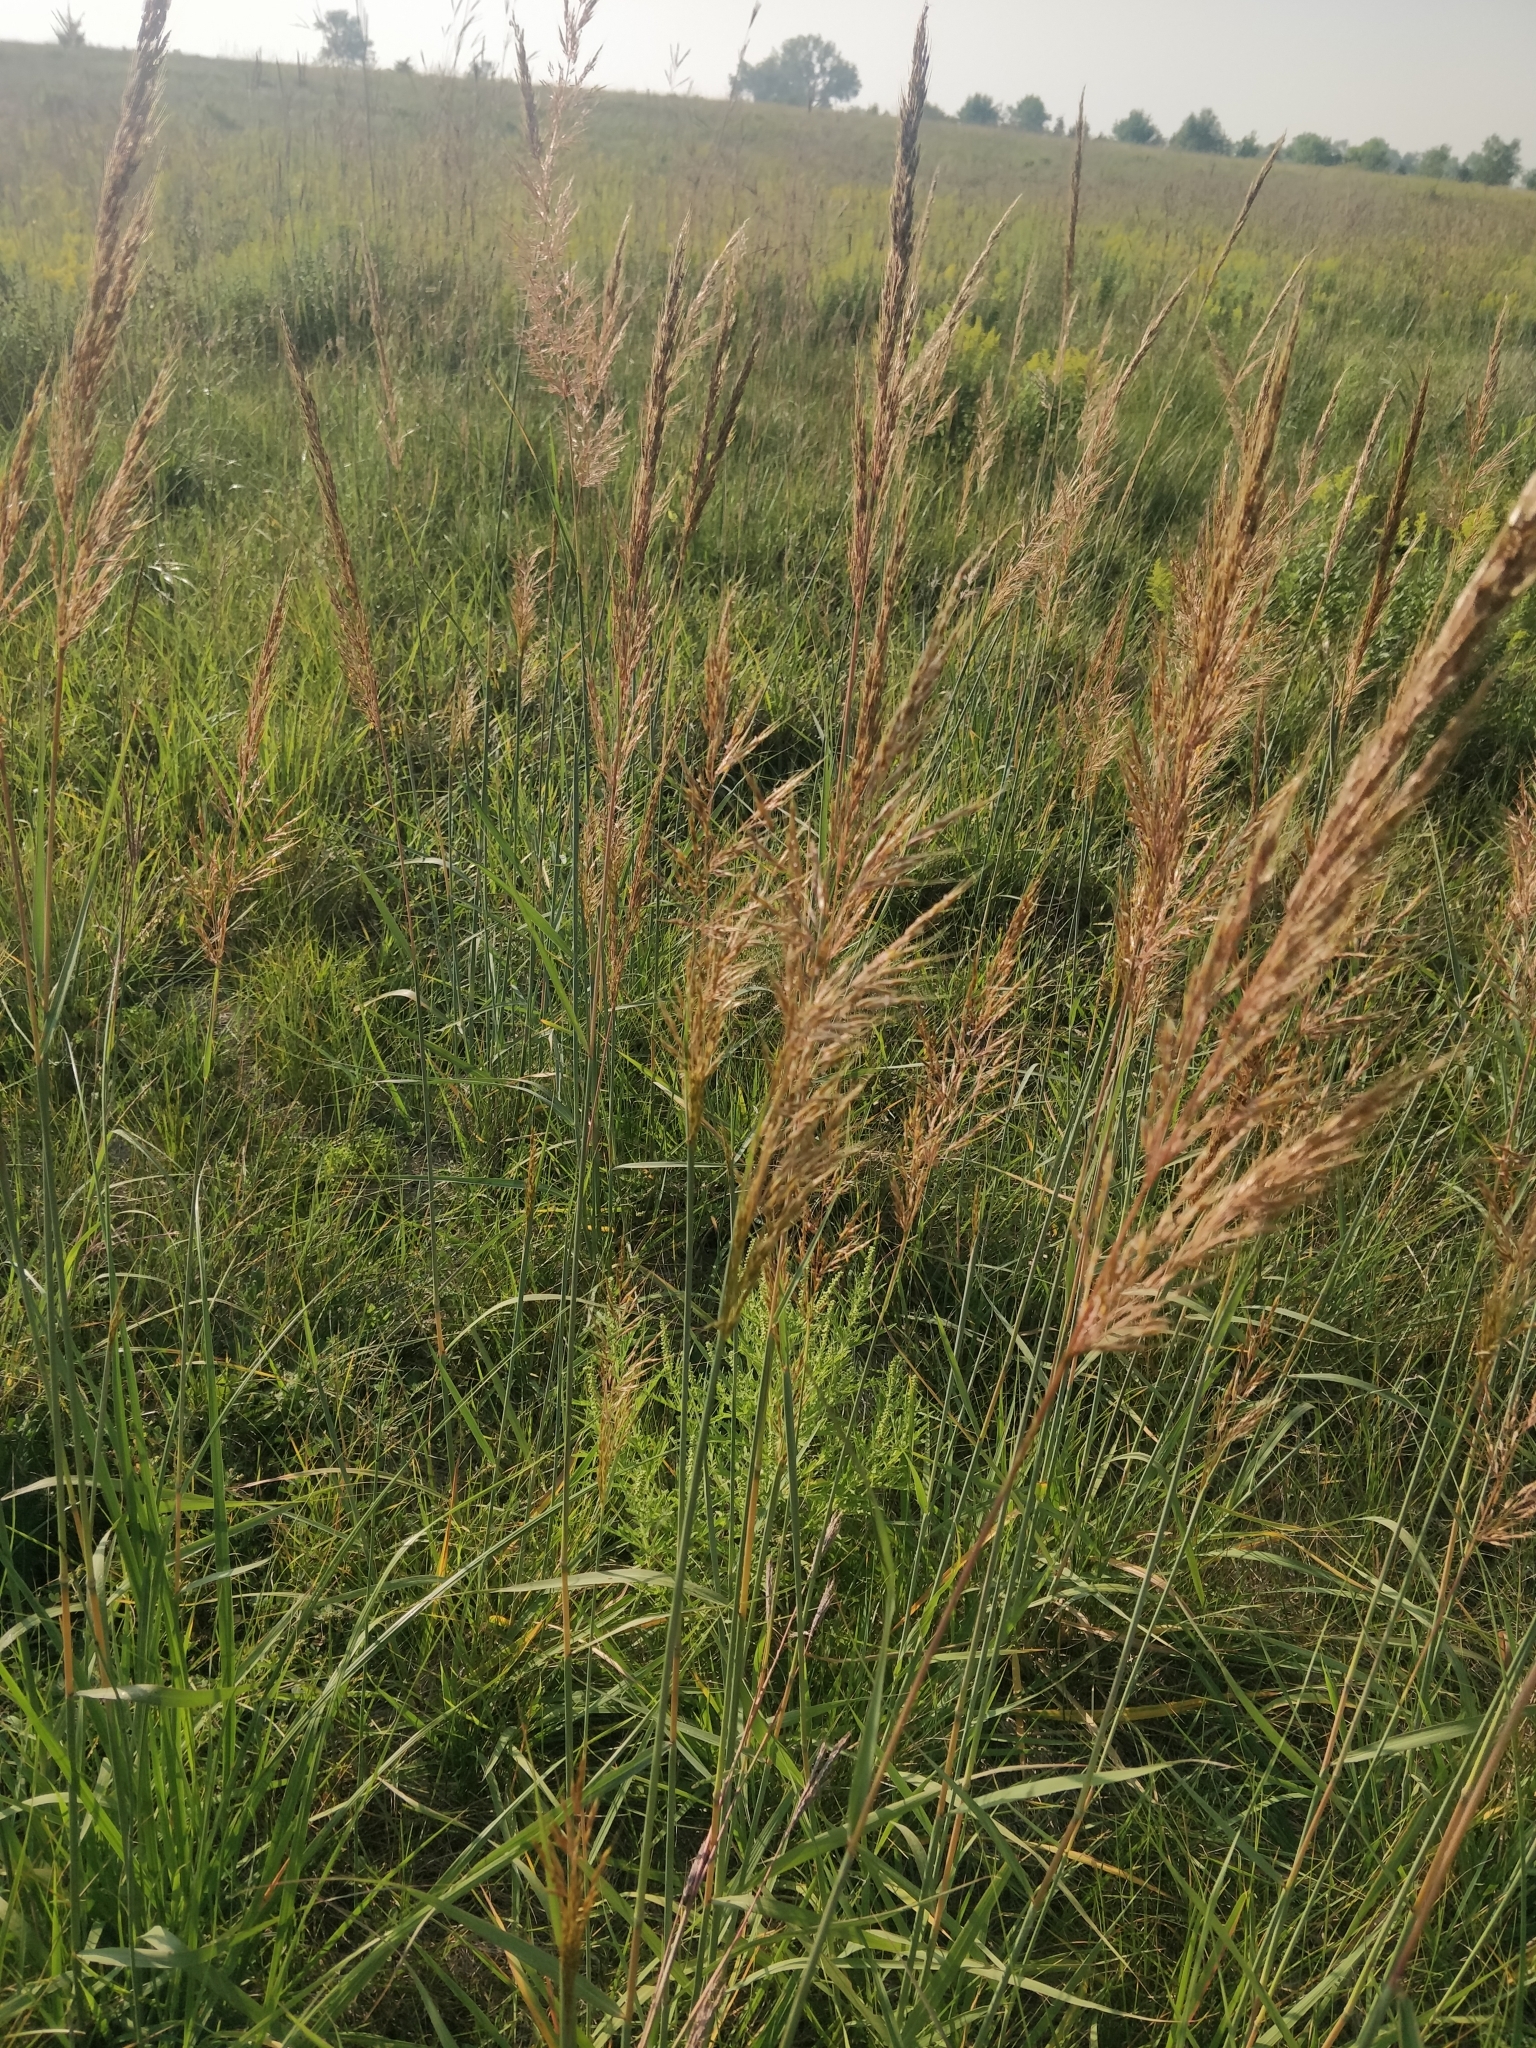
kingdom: Plantae
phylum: Tracheophyta
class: Liliopsida
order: Poales
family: Poaceae
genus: Sorghastrum
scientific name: Sorghastrum nutans
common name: Indian grass
